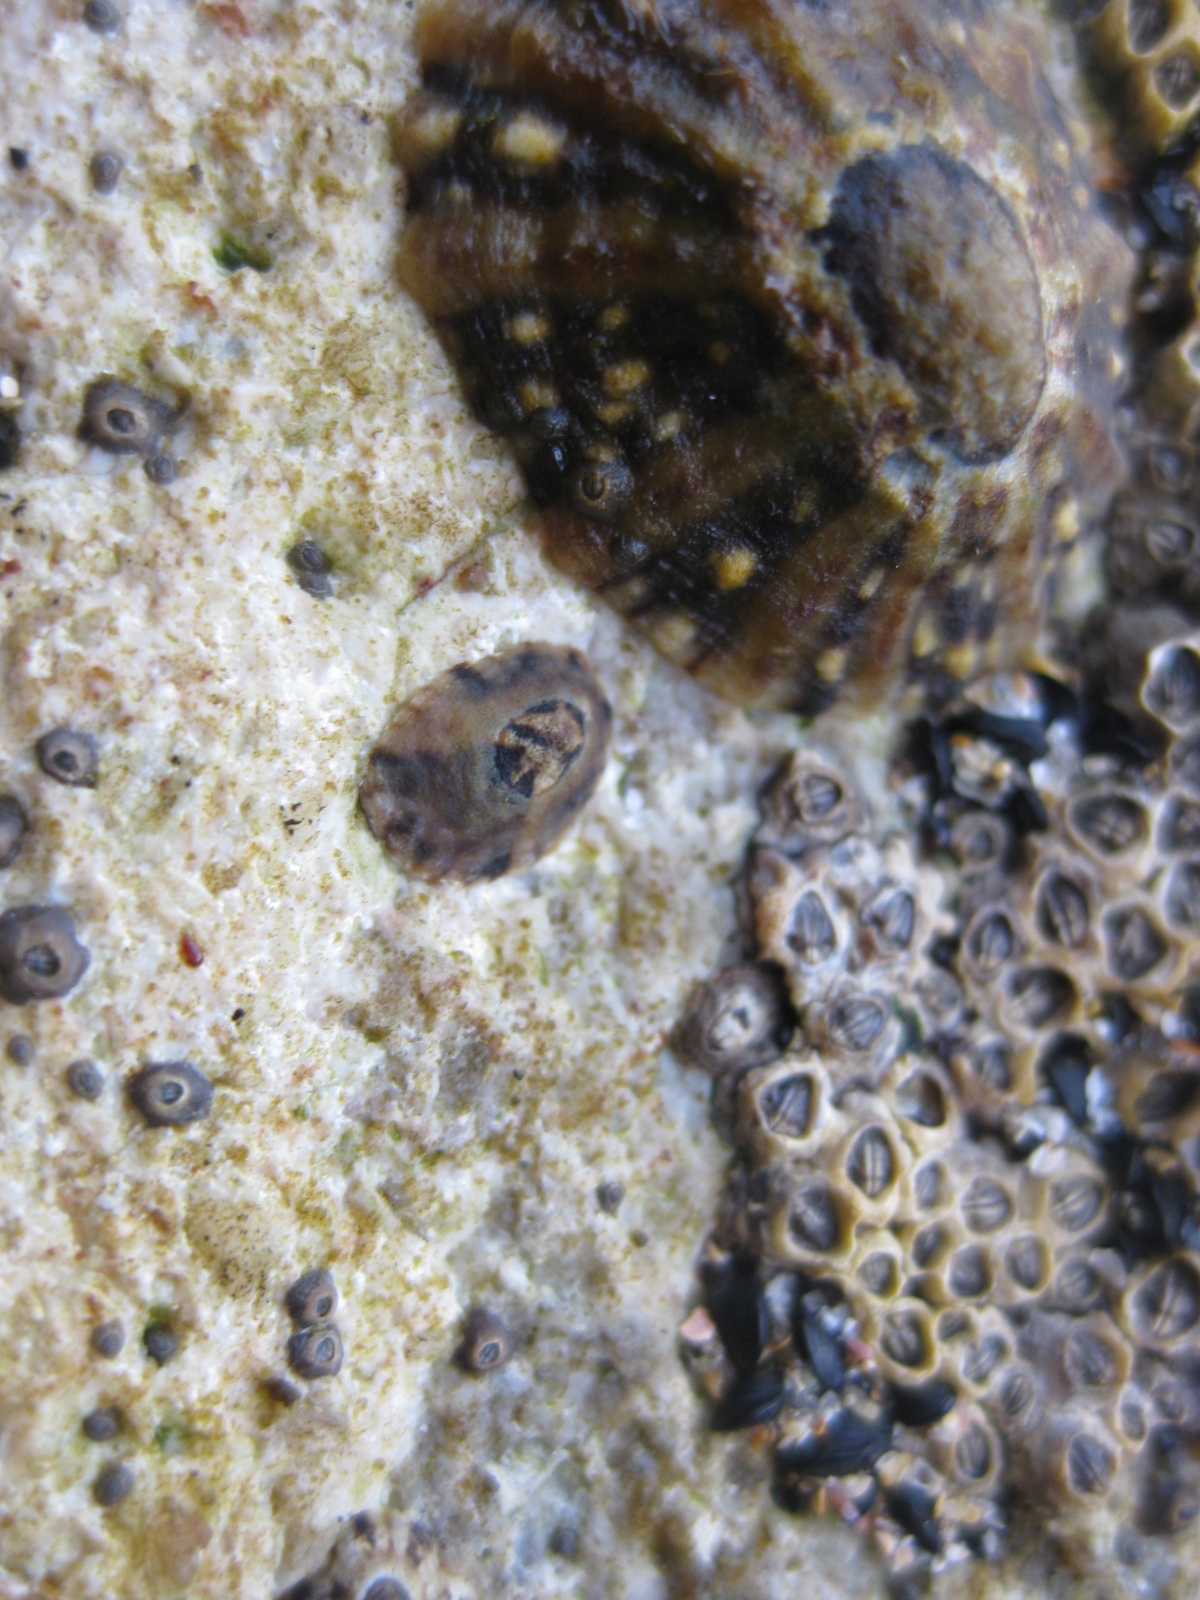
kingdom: Animalia
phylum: Mollusca
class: Gastropoda
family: Lottiidae
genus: Notoacmea
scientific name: Notoacmea parviconoidea
